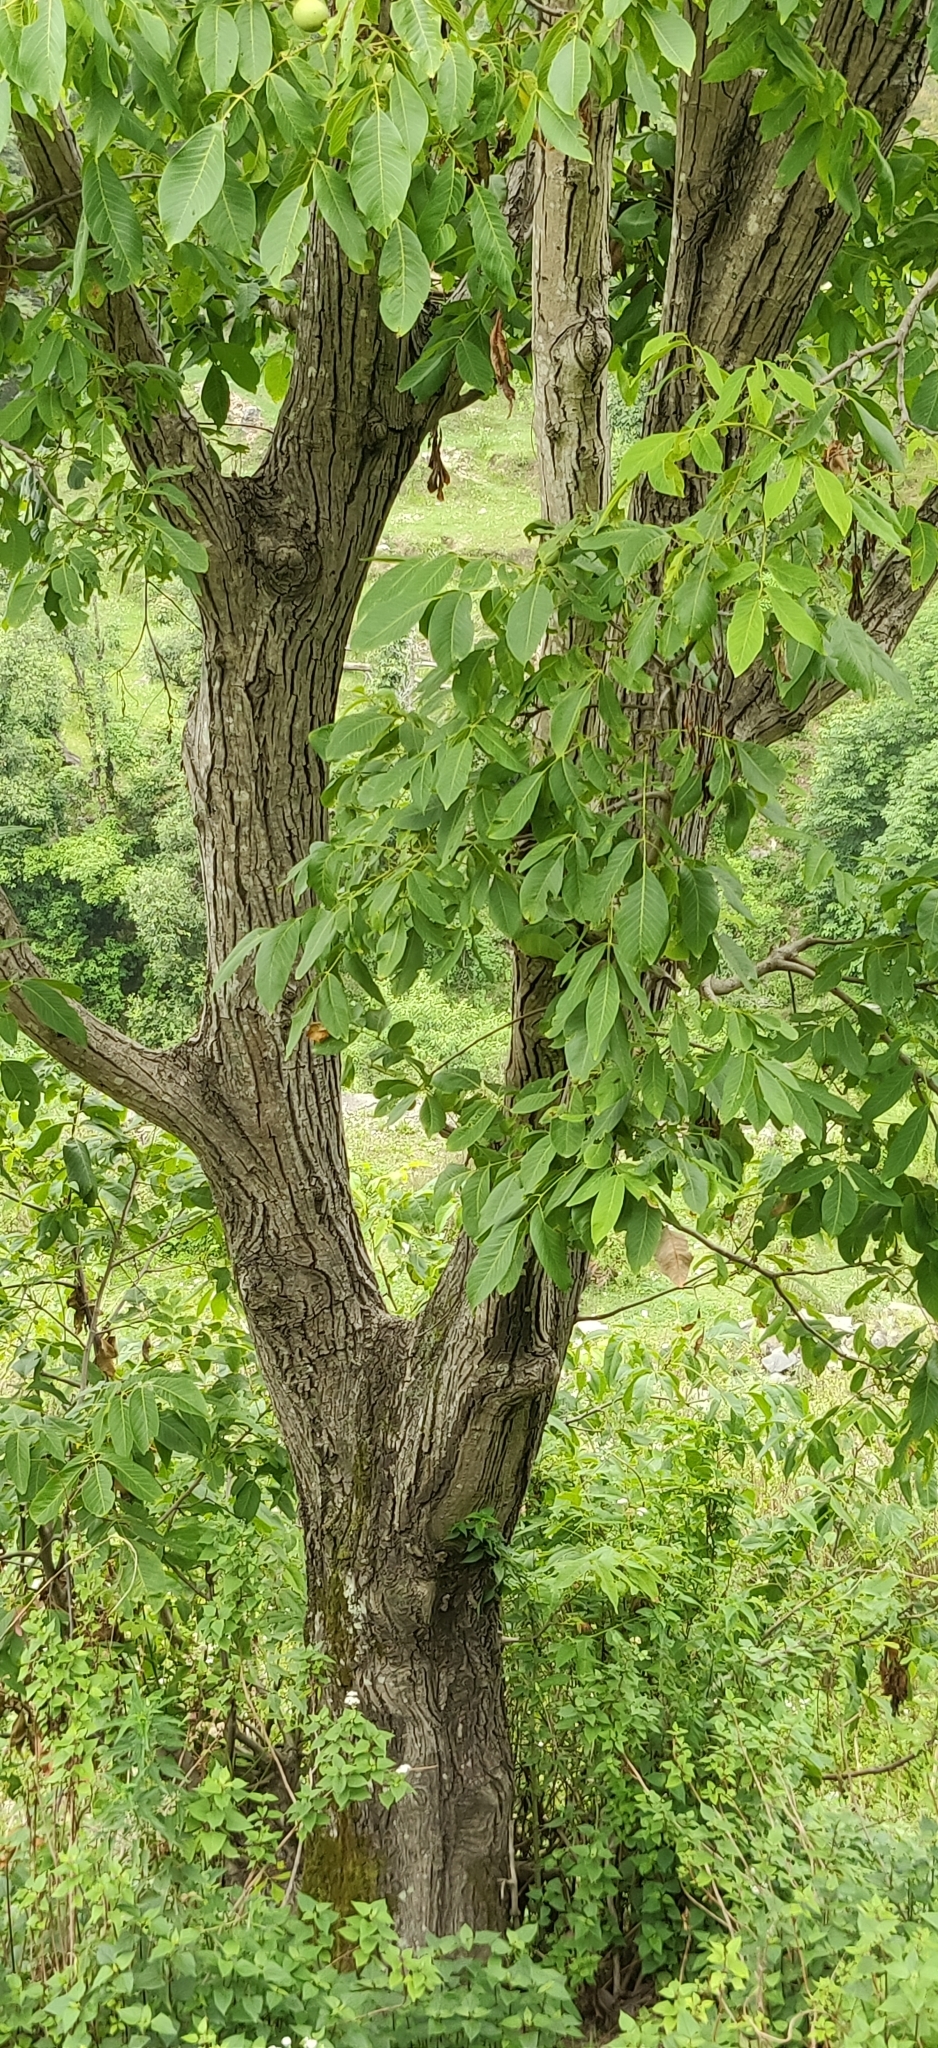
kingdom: Plantae
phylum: Tracheophyta
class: Magnoliopsida
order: Fagales
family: Juglandaceae
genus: Juglans
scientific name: Juglans regia
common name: Walnut
